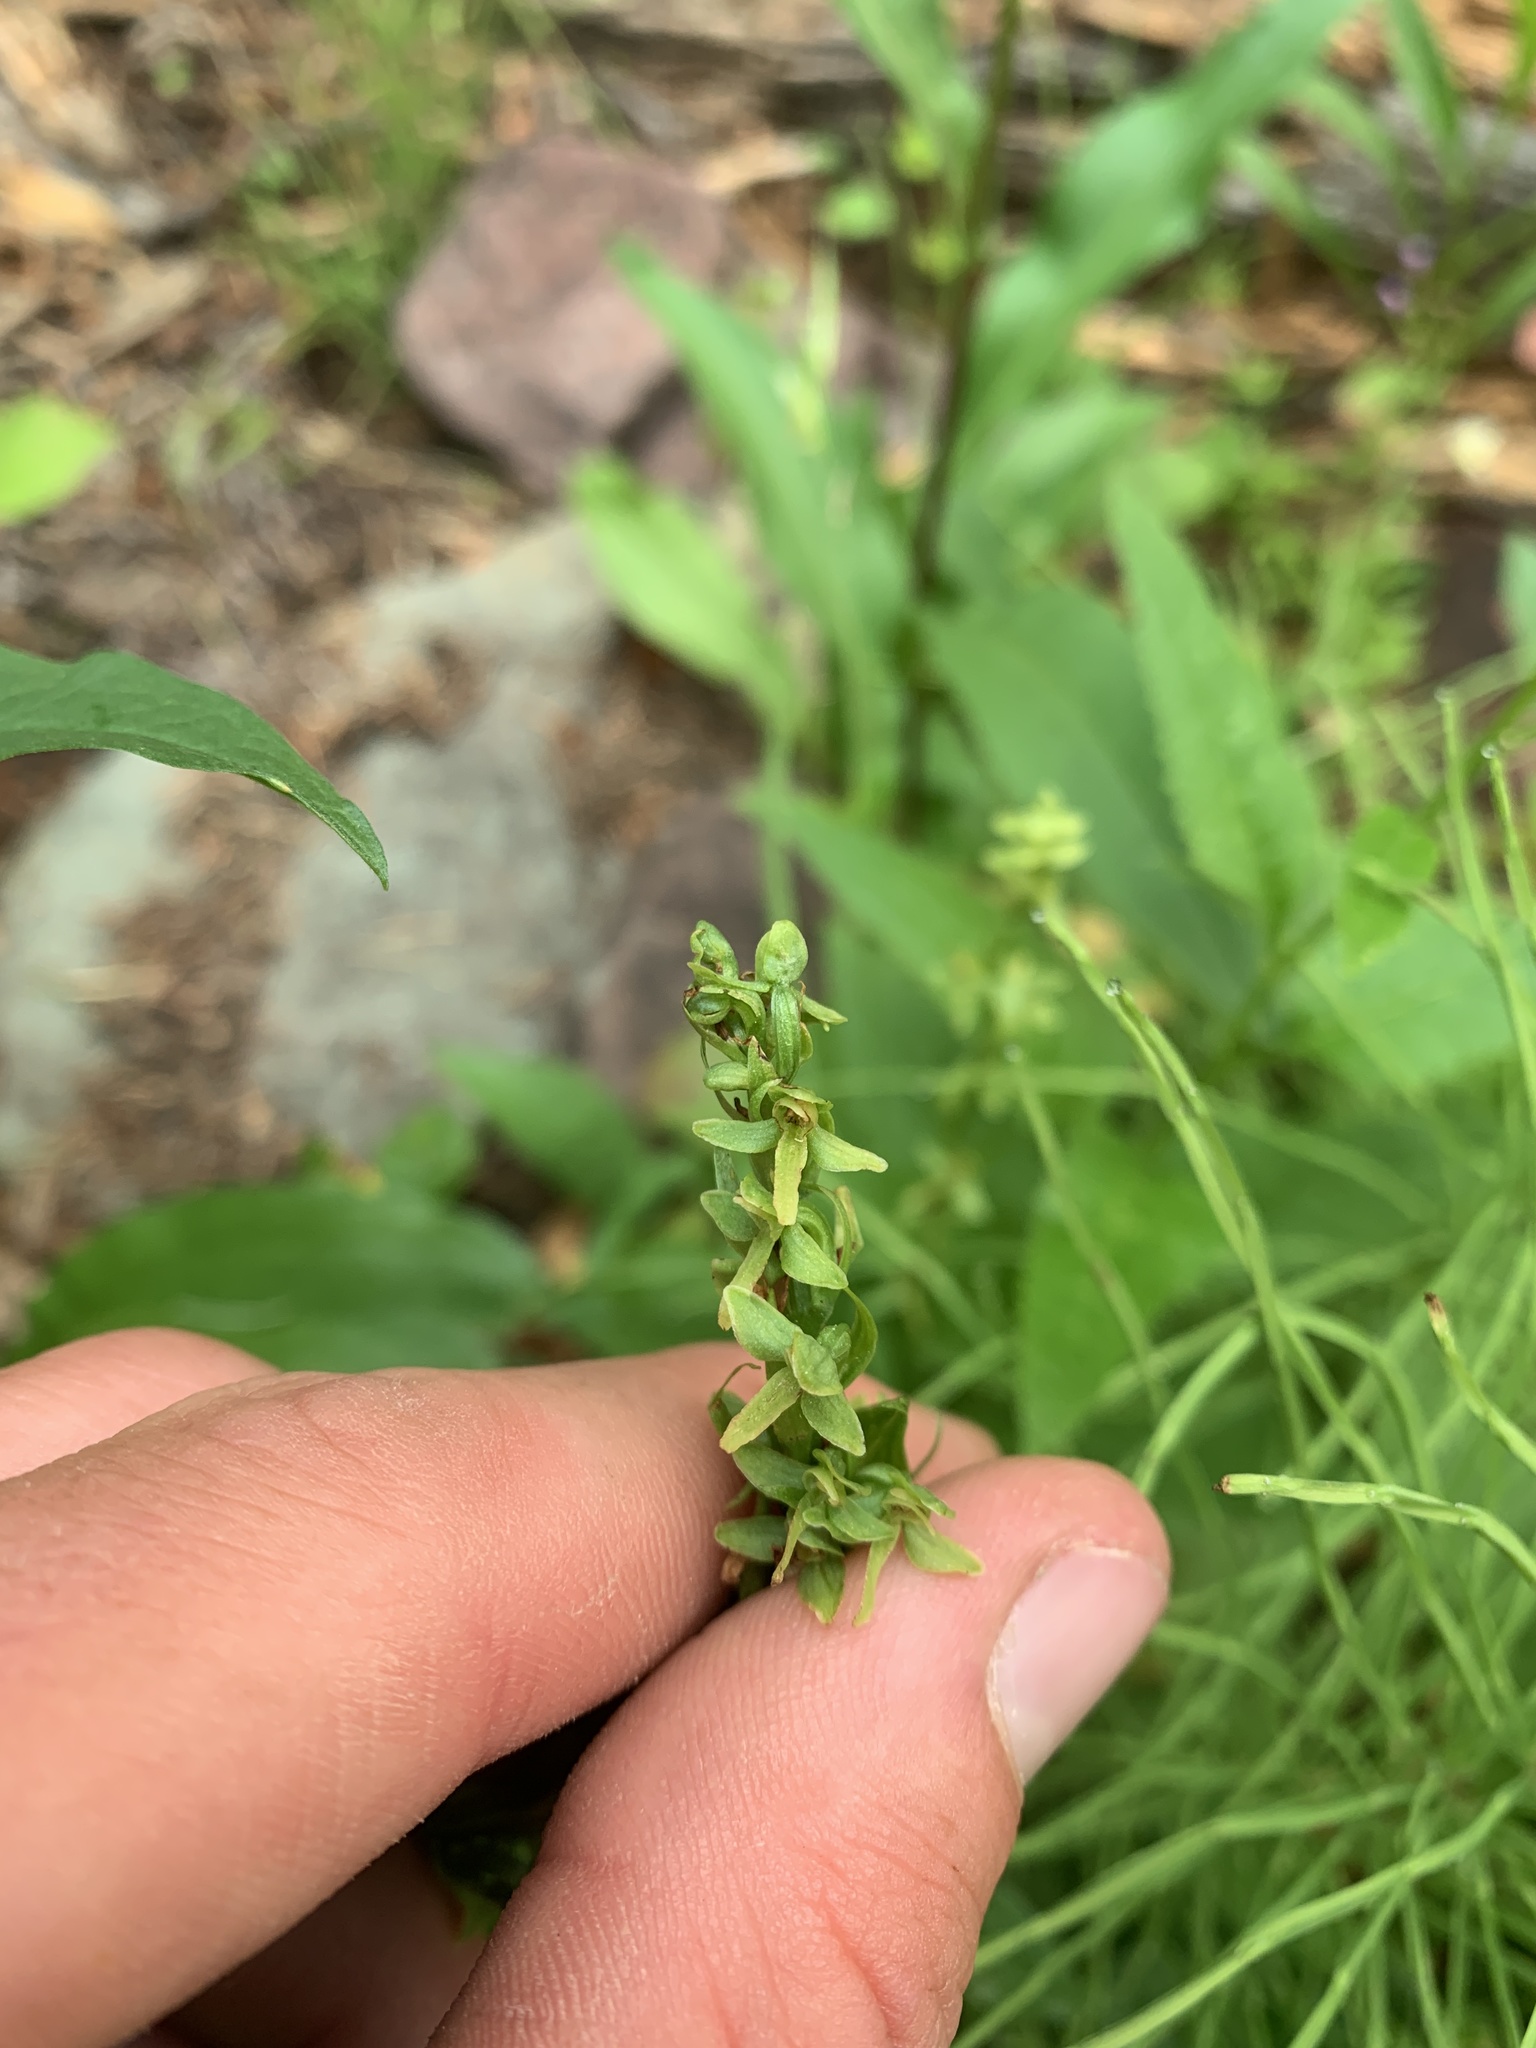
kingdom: Plantae
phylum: Tracheophyta
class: Liliopsida
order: Asparagales
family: Orchidaceae
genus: Platanthera
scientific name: Platanthera stricta
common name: Slender bog orchid
